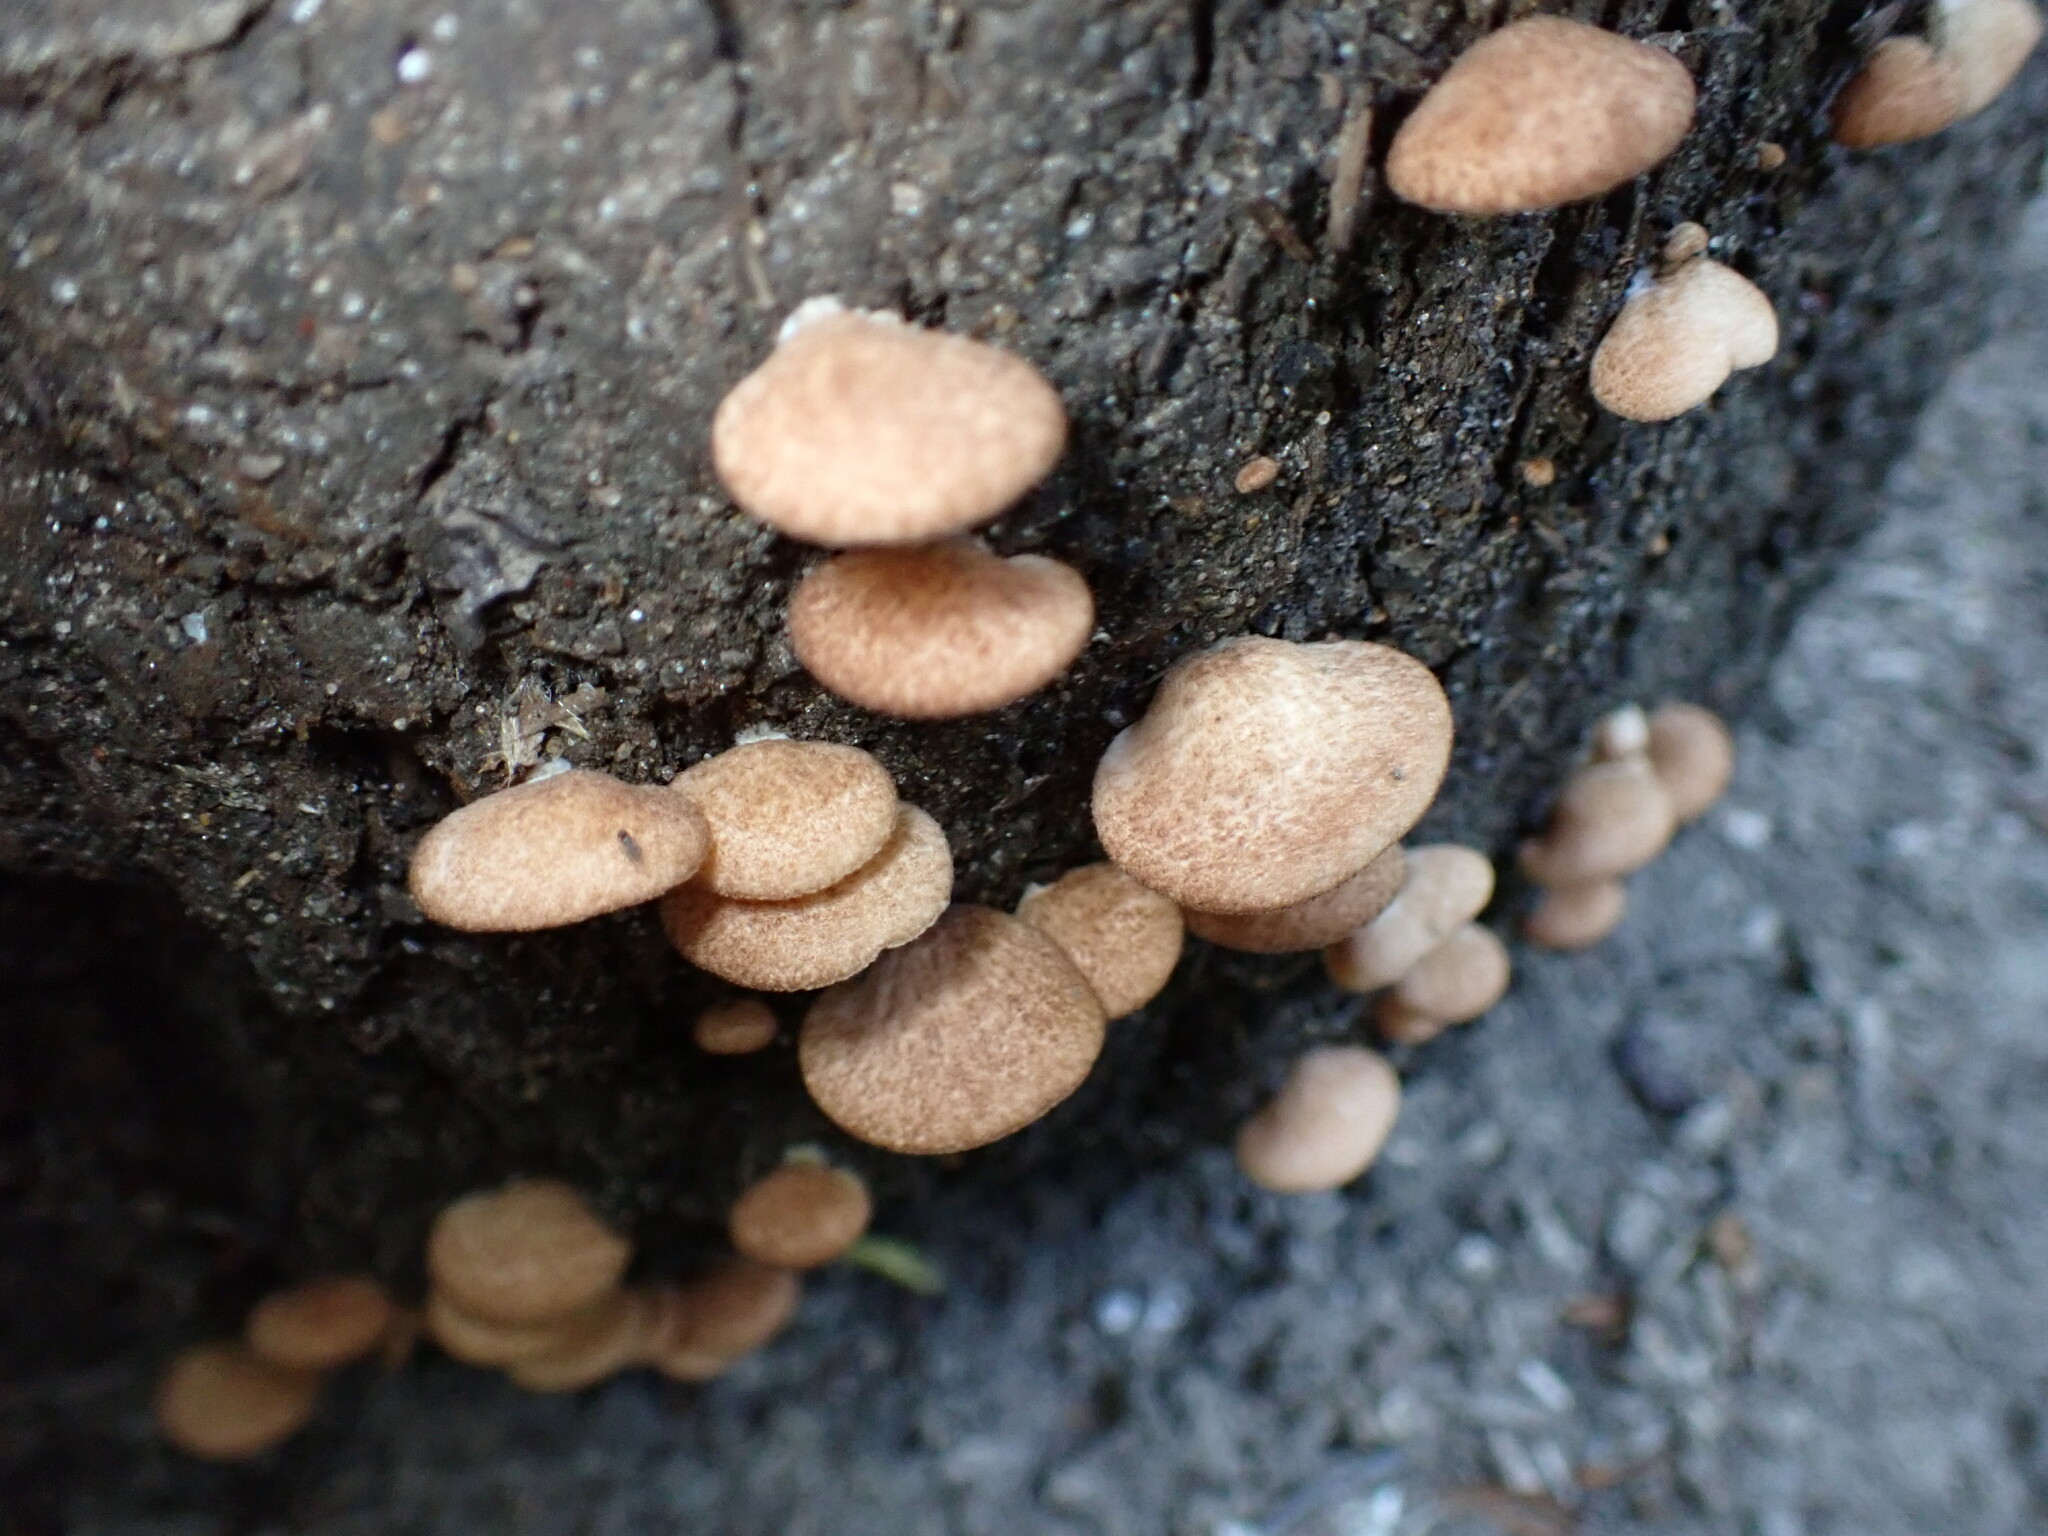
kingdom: Fungi
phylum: Basidiomycota
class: Agaricomycetes
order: Agaricales
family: Crepidotaceae
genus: Crepidotus
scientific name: Crepidotus crocophyllus
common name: Saffron oysterling
